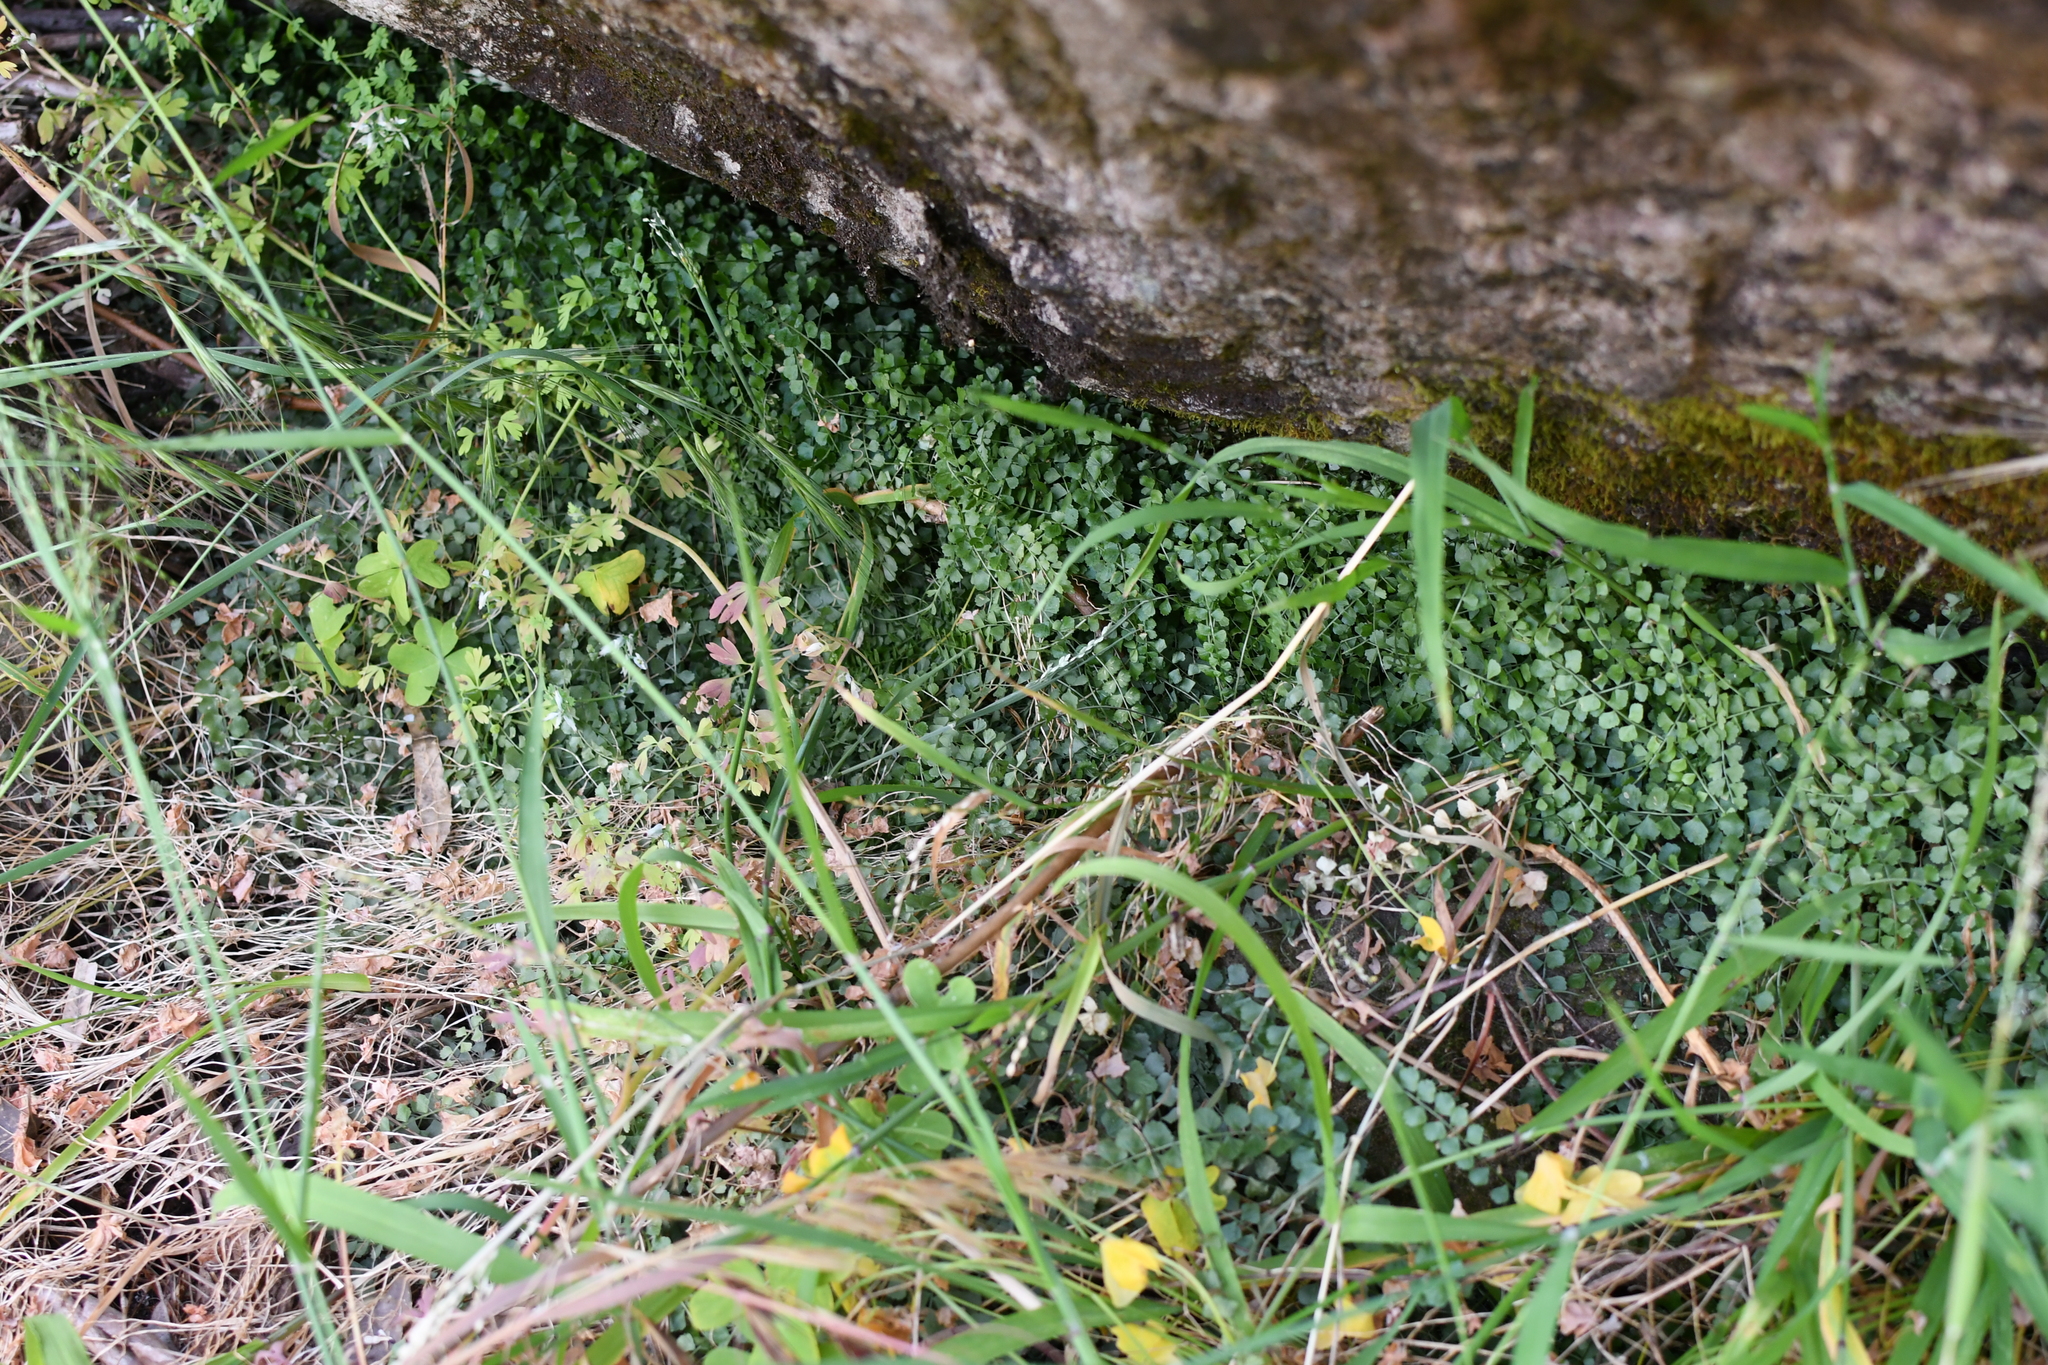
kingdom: Plantae
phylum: Tracheophyta
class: Polypodiopsida
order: Polypodiales
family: Aspleniaceae
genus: Asplenium
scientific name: Asplenium flabellifolium
